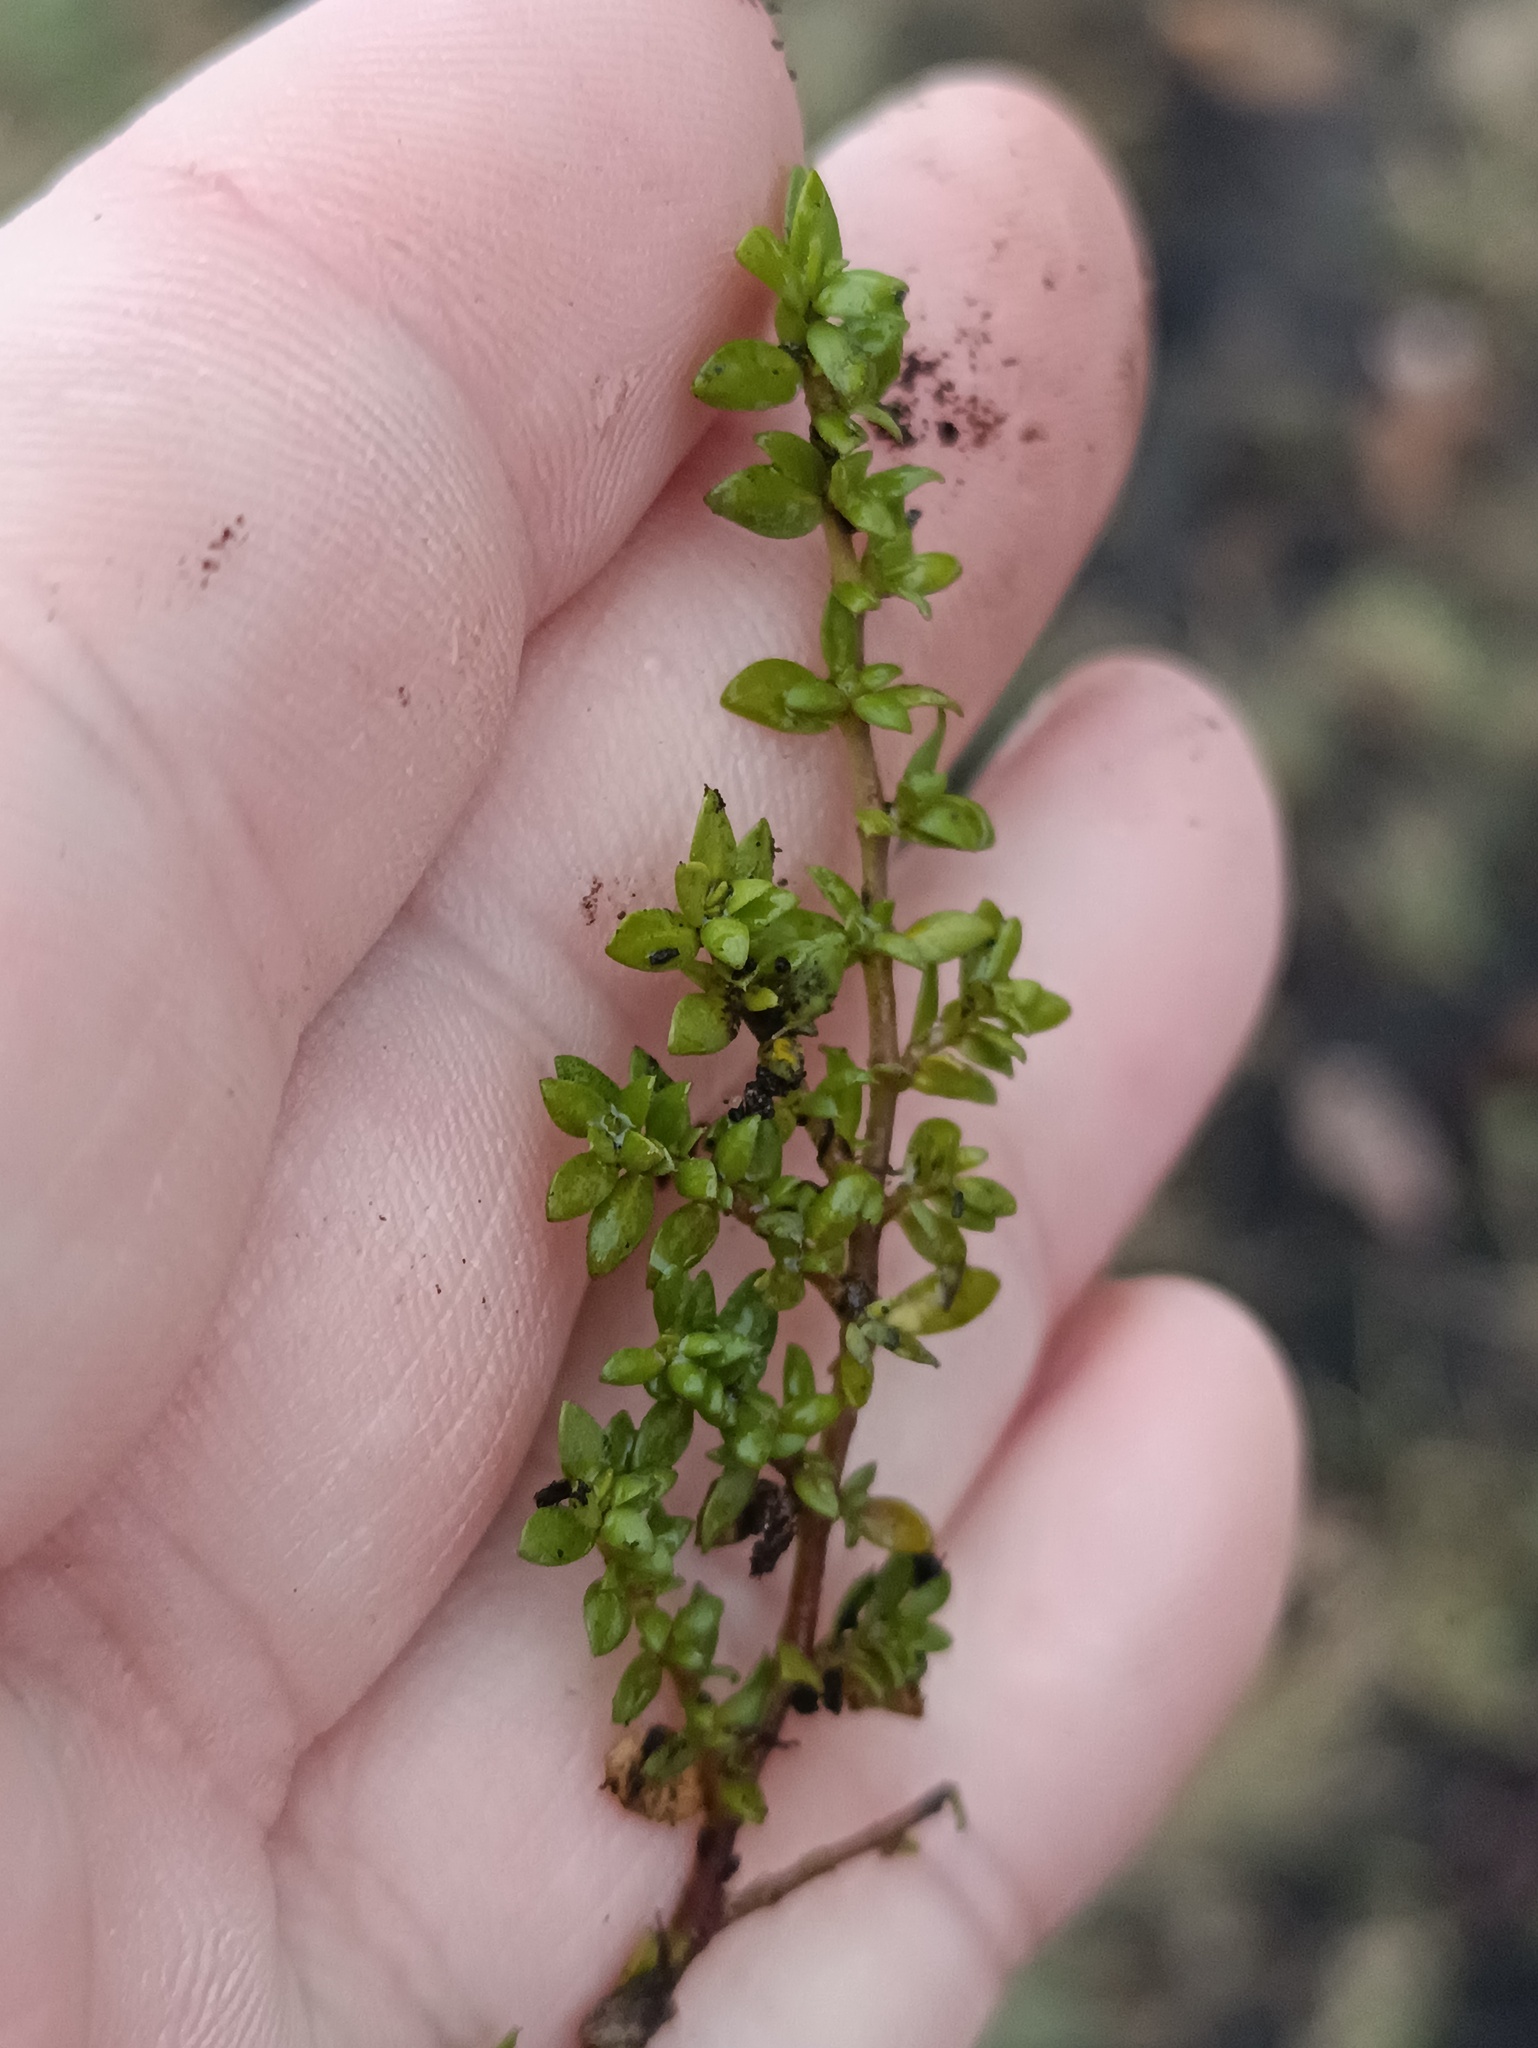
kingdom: Plantae
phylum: Tracheophyta
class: Magnoliopsida
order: Caryophyllales
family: Caryophyllaceae
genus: Herniaria
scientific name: Herniaria glabra
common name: Smooth rupturewort
